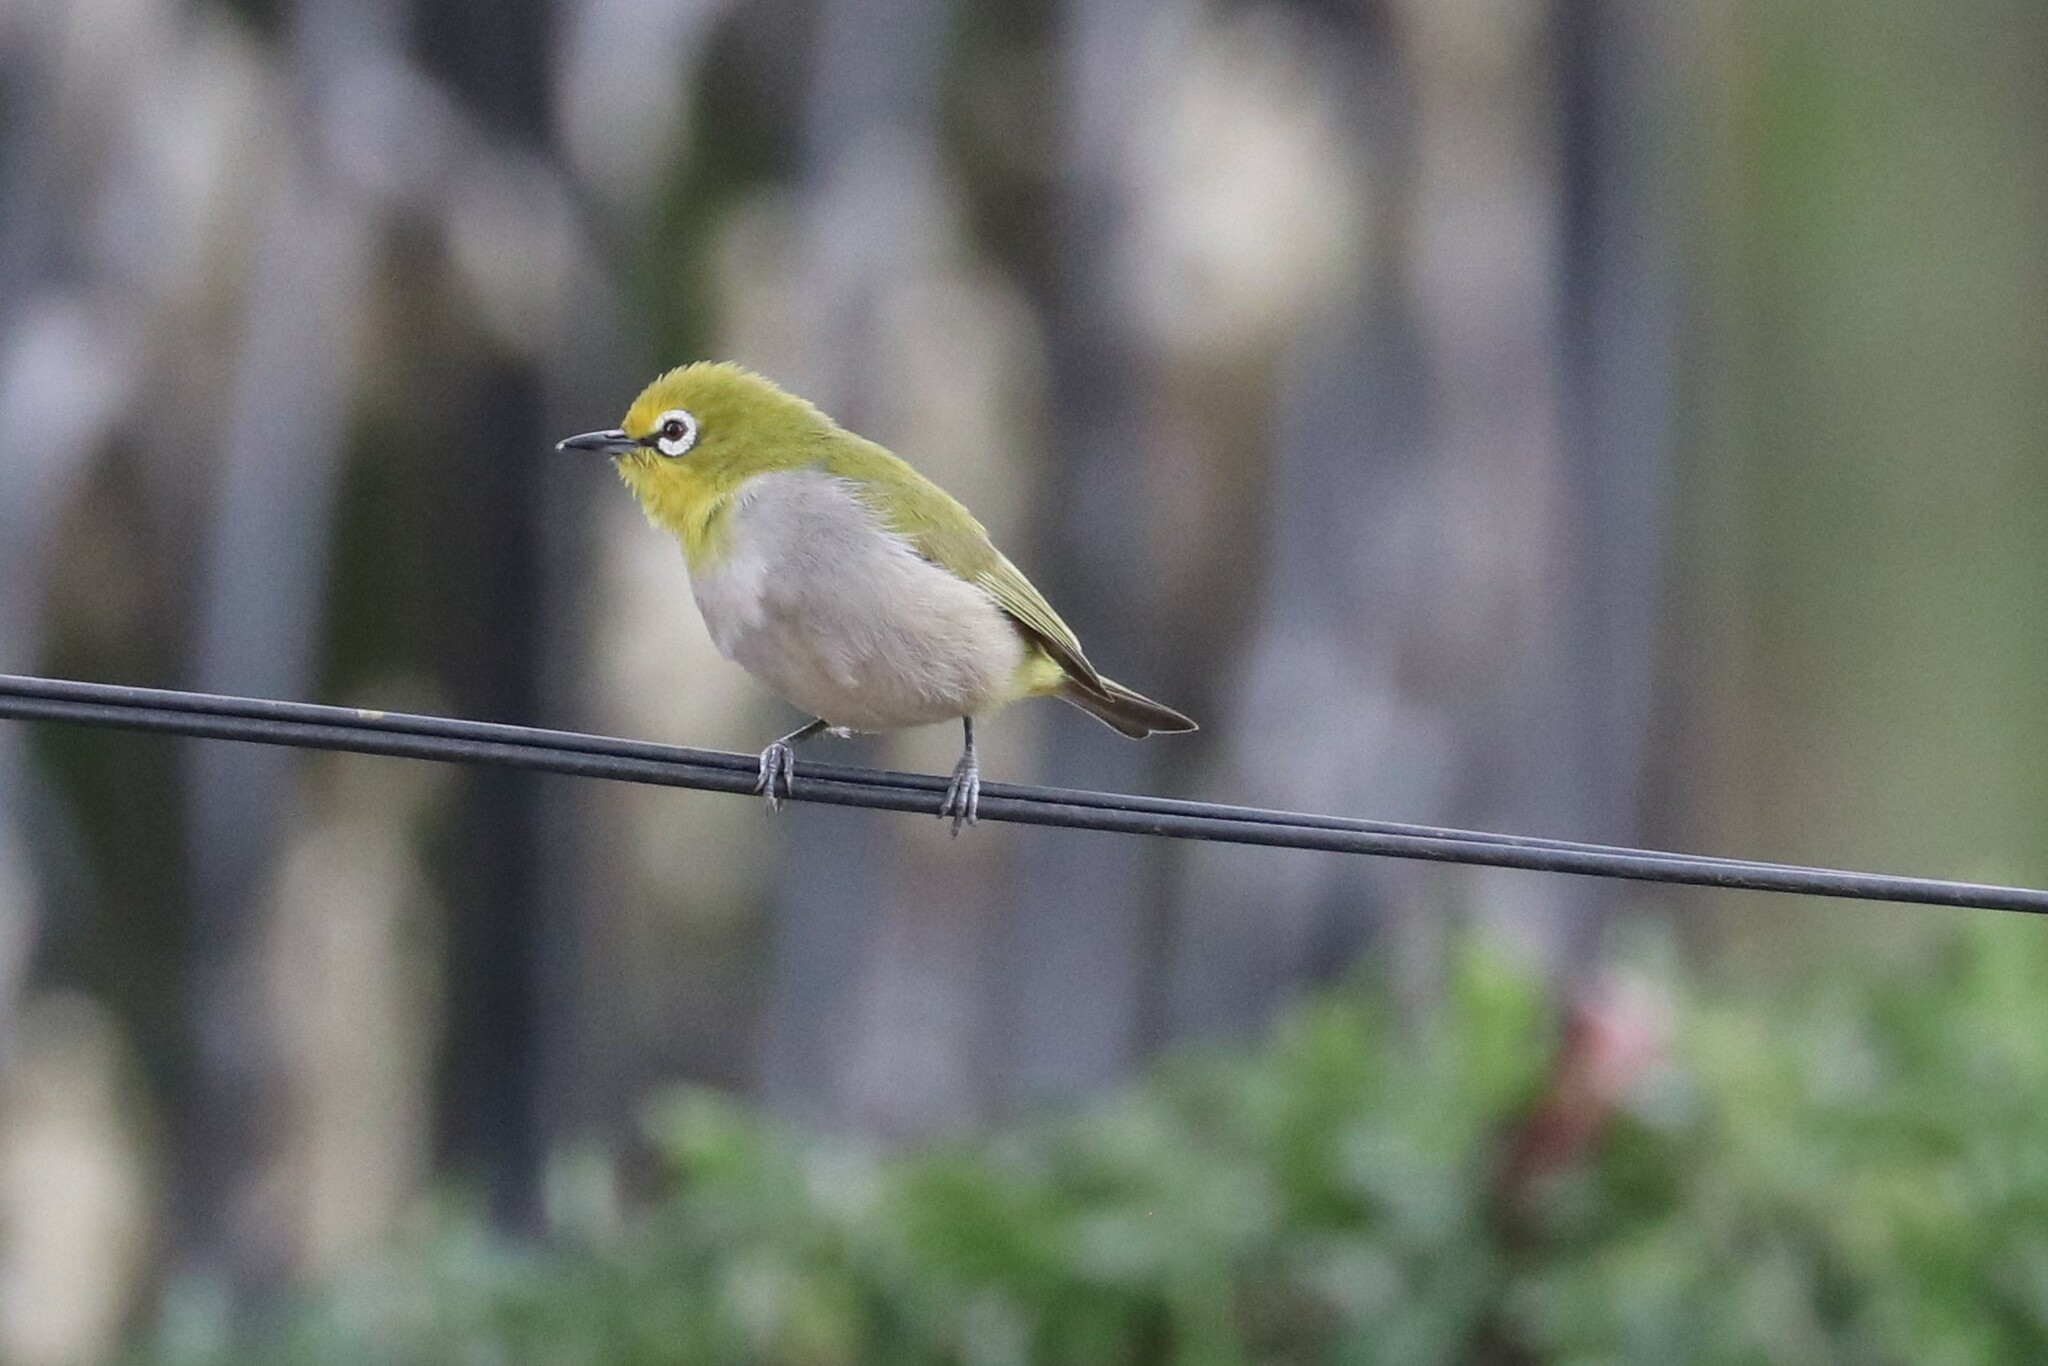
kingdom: Animalia
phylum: Chordata
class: Aves
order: Passeriformes
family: Zosteropidae
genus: Zosterops
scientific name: Zosterops poliogastrus
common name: Montane white-eye
